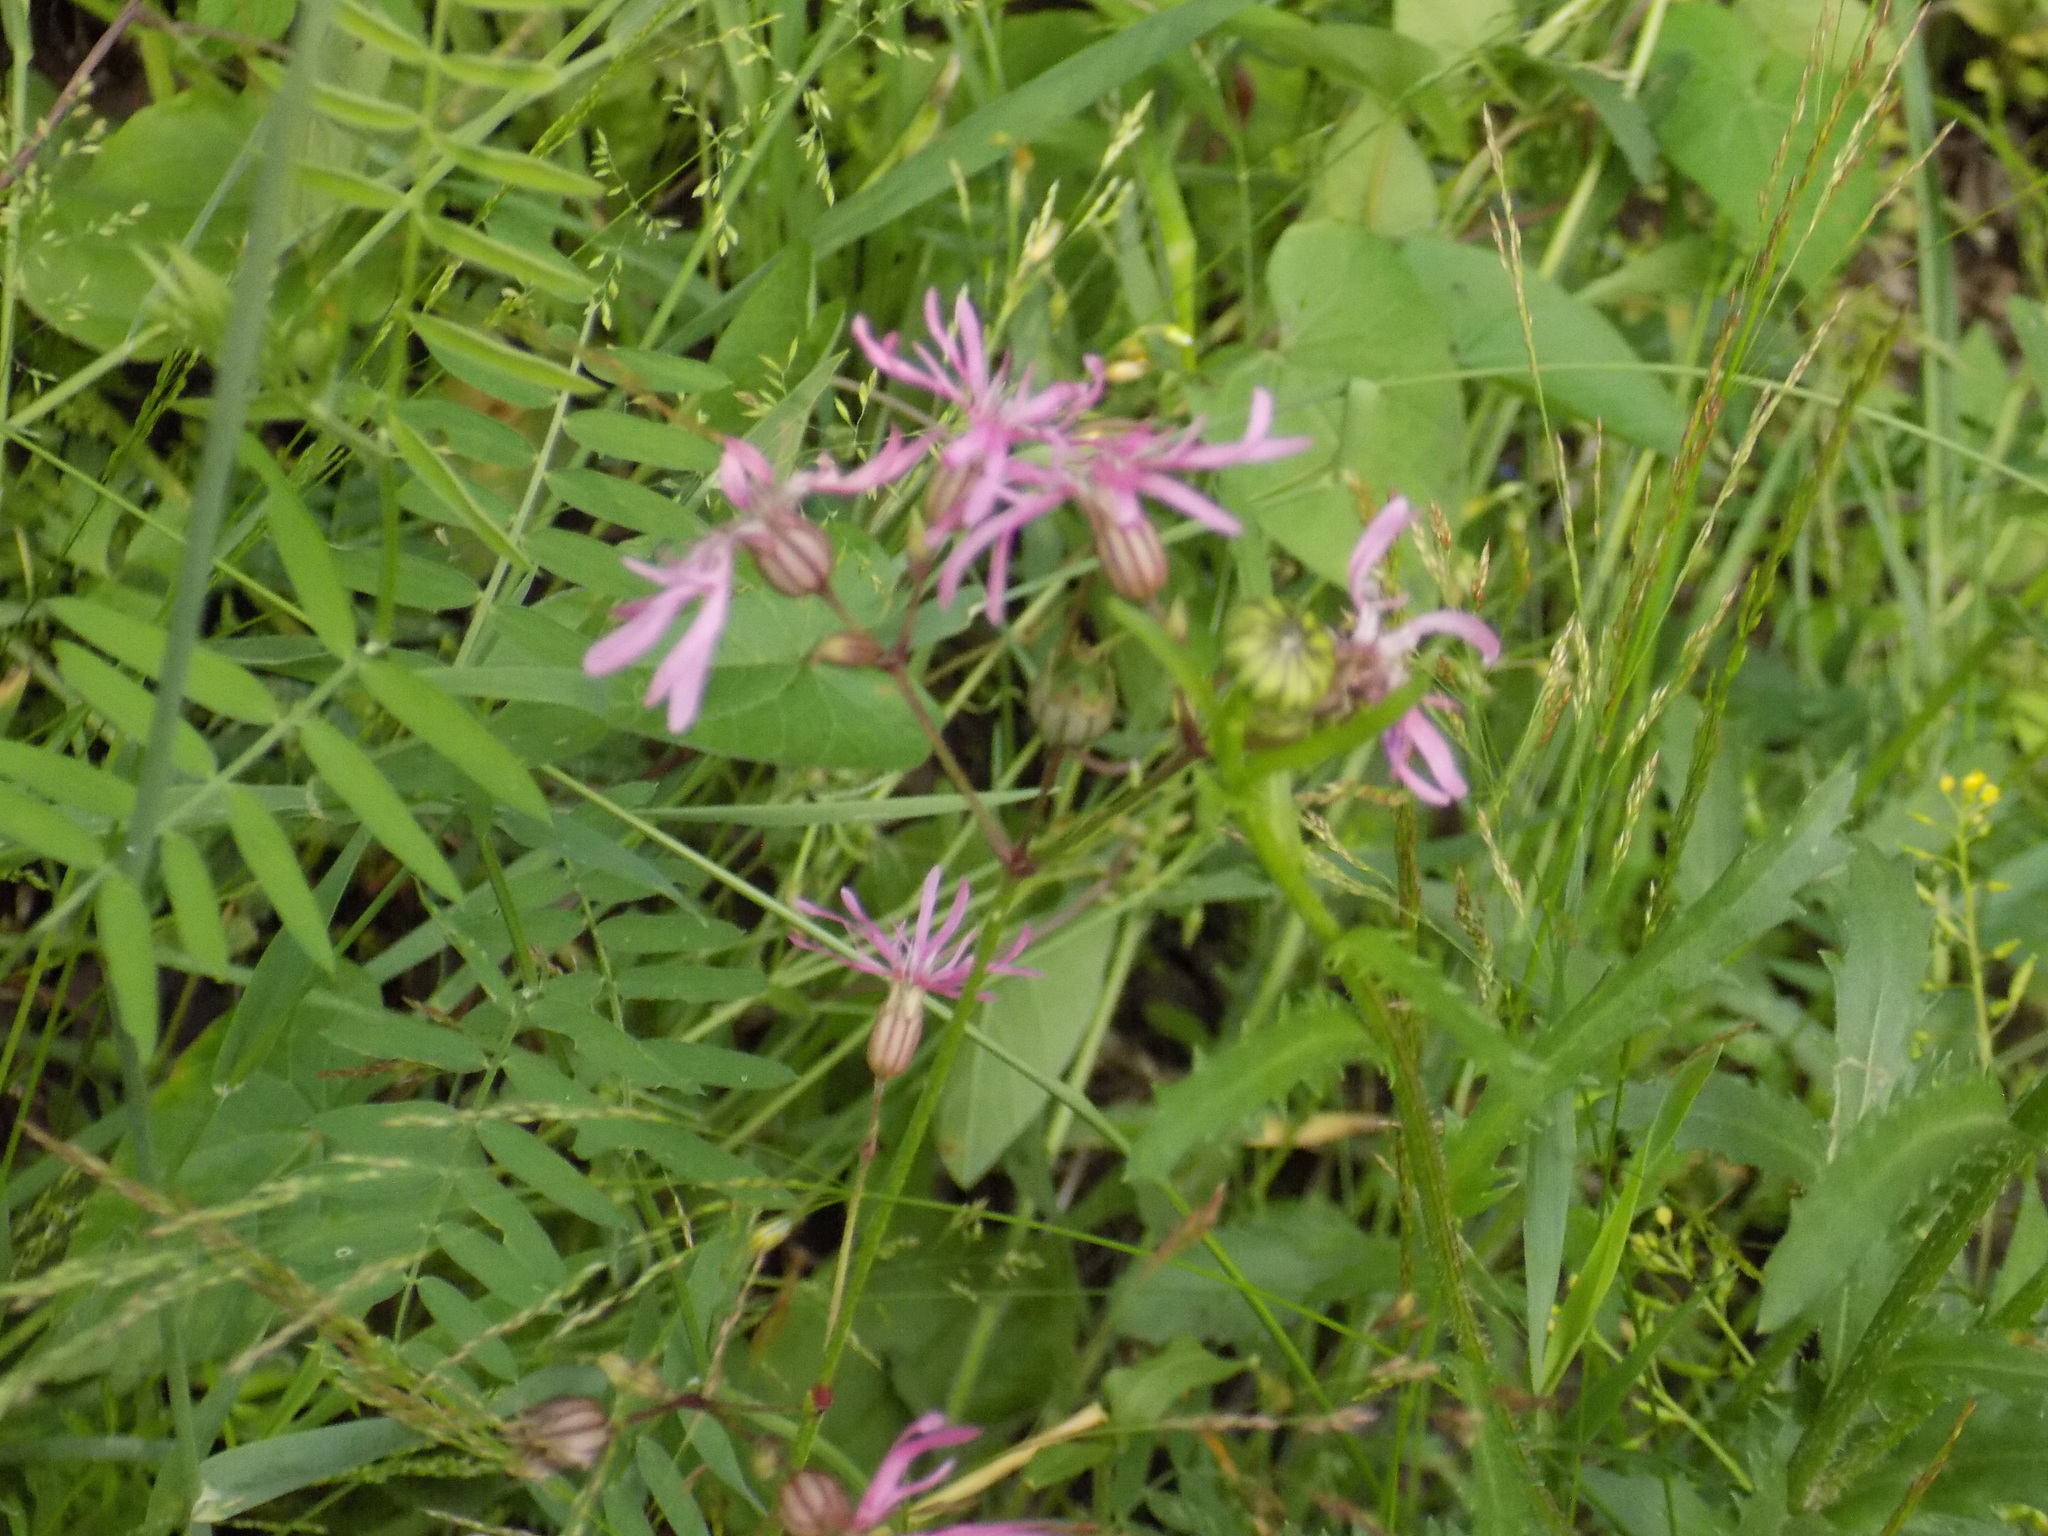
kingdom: Plantae
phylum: Tracheophyta
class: Magnoliopsida
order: Caryophyllales
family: Caryophyllaceae
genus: Silene
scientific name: Silene flos-cuculi
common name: Ragged-robin
